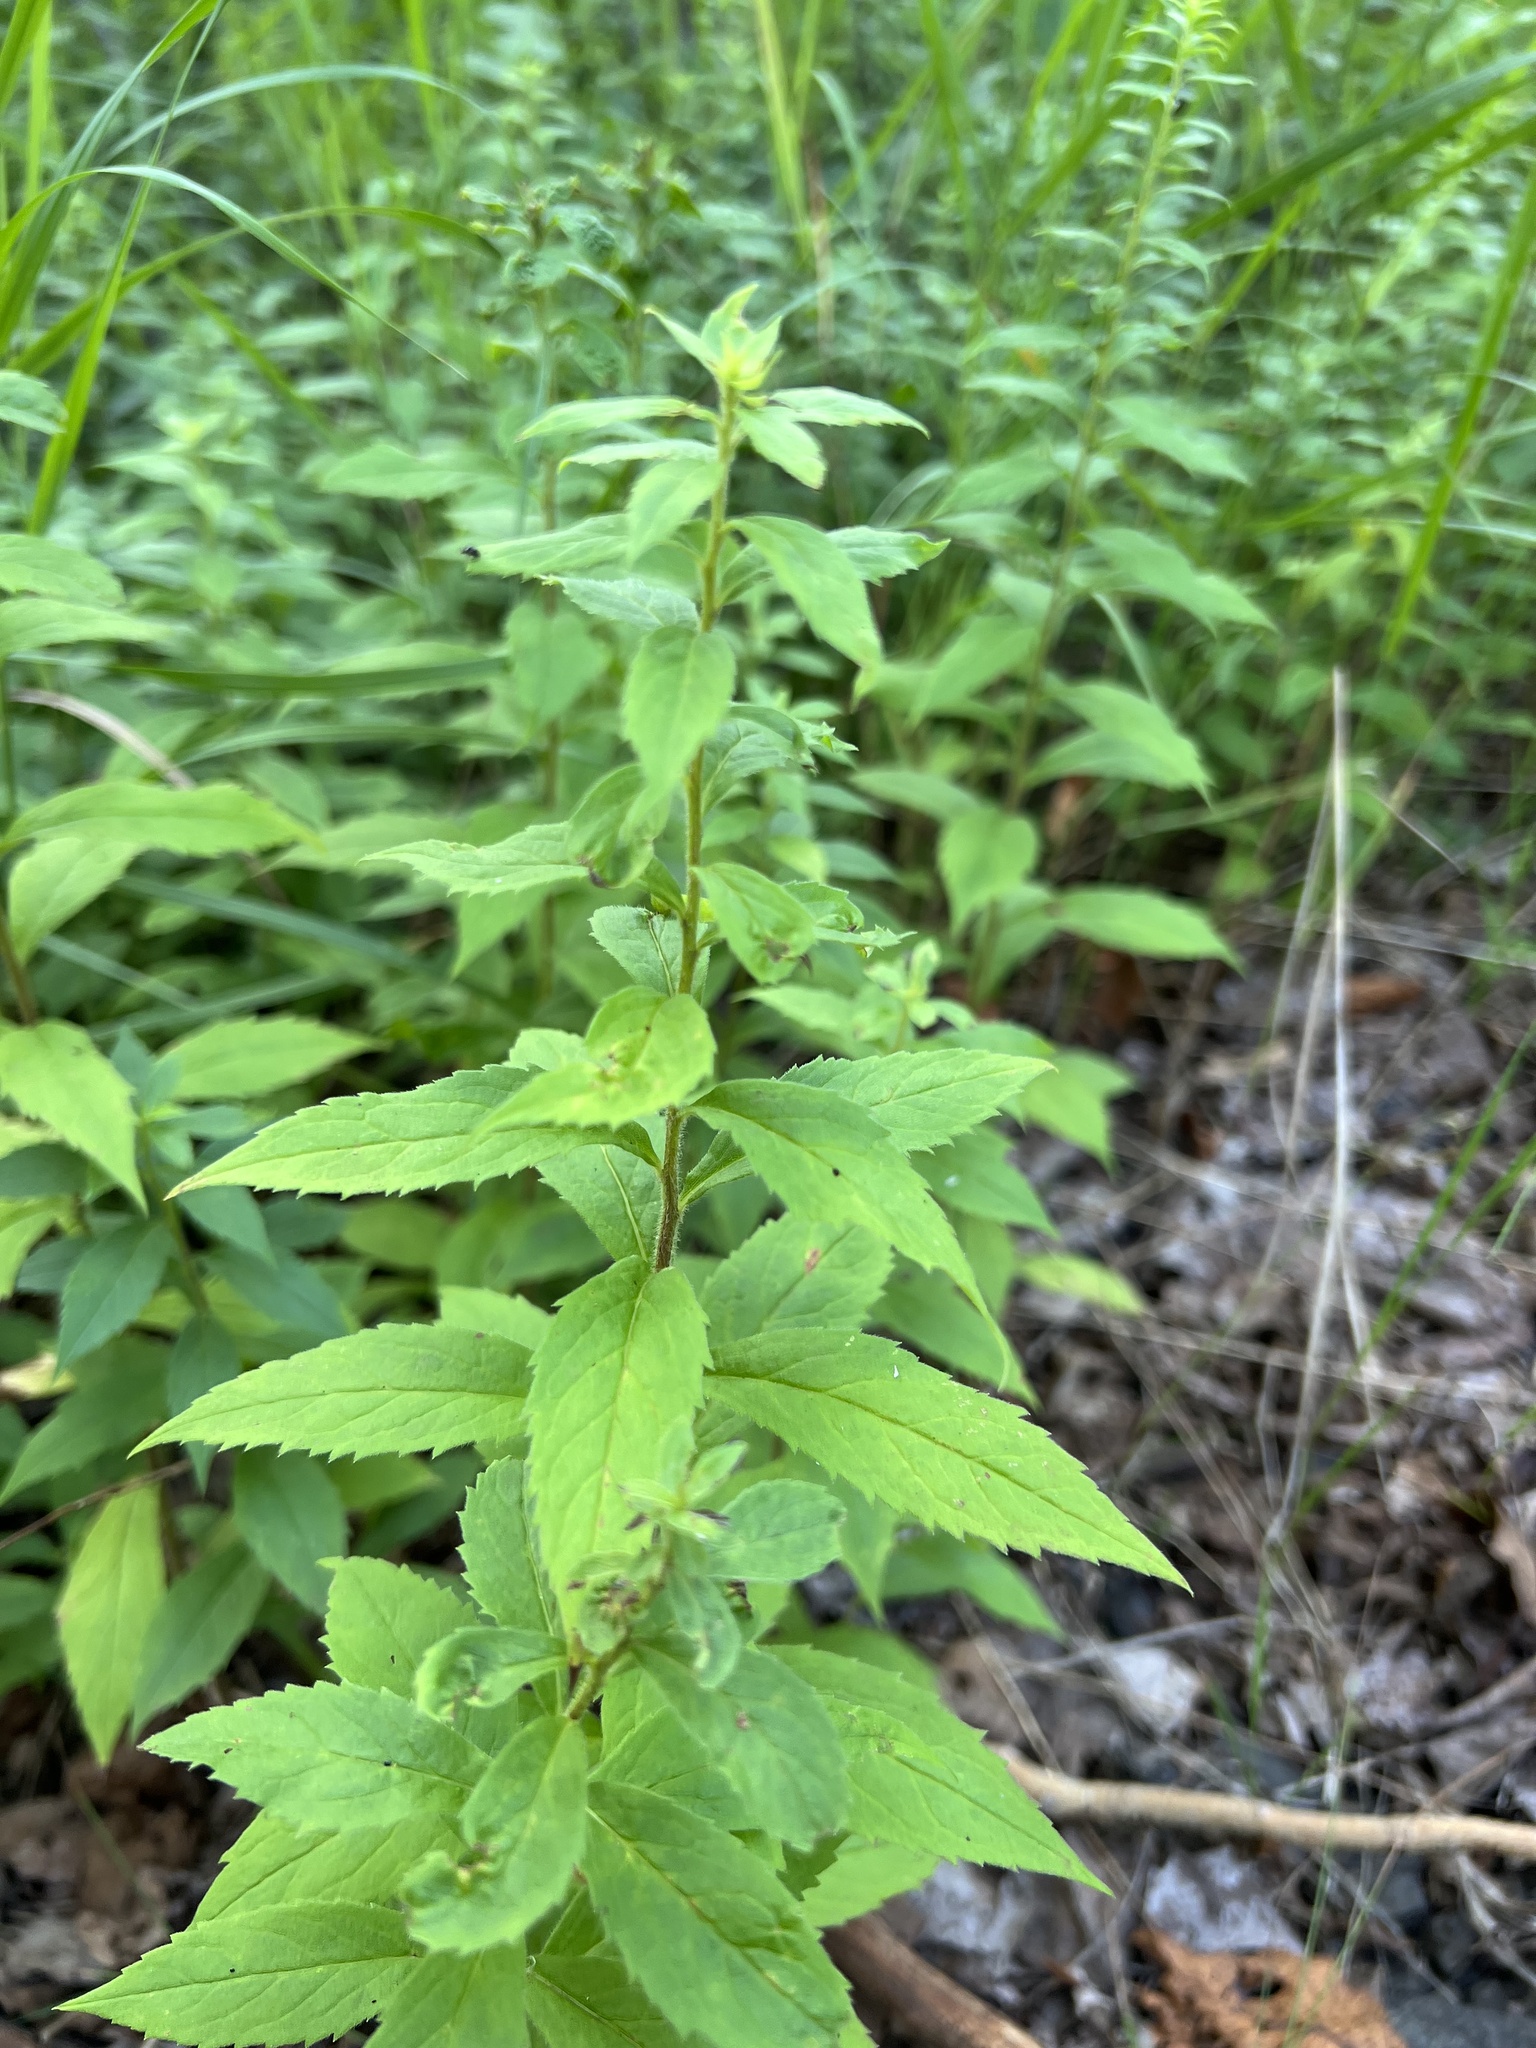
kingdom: Plantae
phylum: Tracheophyta
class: Magnoliopsida
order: Asterales
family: Asteraceae
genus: Solidago
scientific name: Solidago rugosa
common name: Rough-stemmed goldenrod
